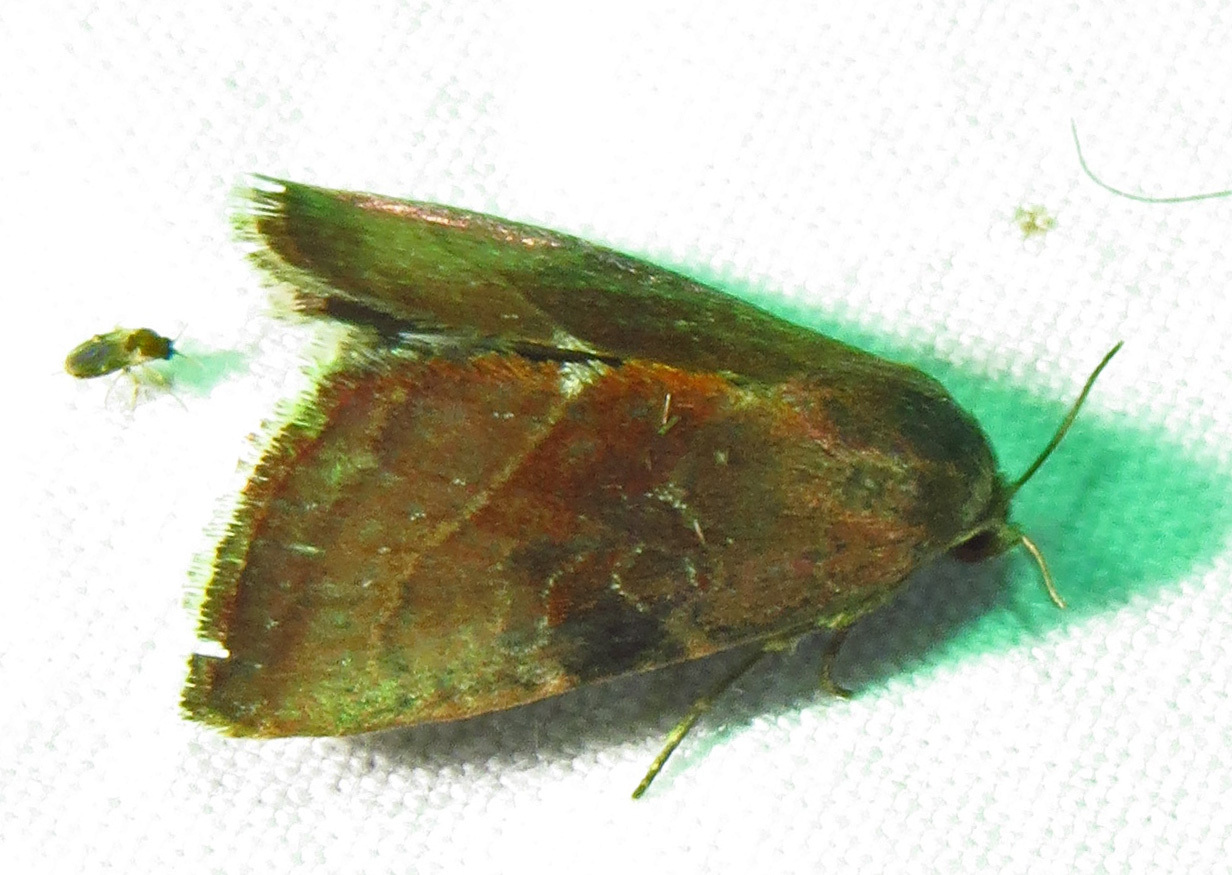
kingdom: Animalia
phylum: Arthropoda
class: Insecta
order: Lepidoptera
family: Noctuidae
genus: Galgula
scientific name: Galgula partita
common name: Wedgeling
